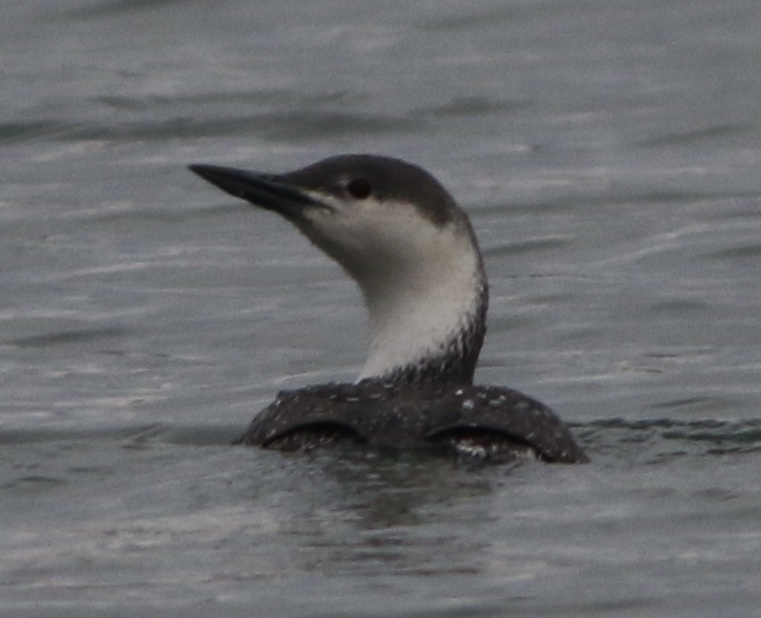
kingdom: Animalia
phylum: Chordata
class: Aves
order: Gaviiformes
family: Gaviidae
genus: Gavia
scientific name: Gavia stellata
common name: Red-throated loon
